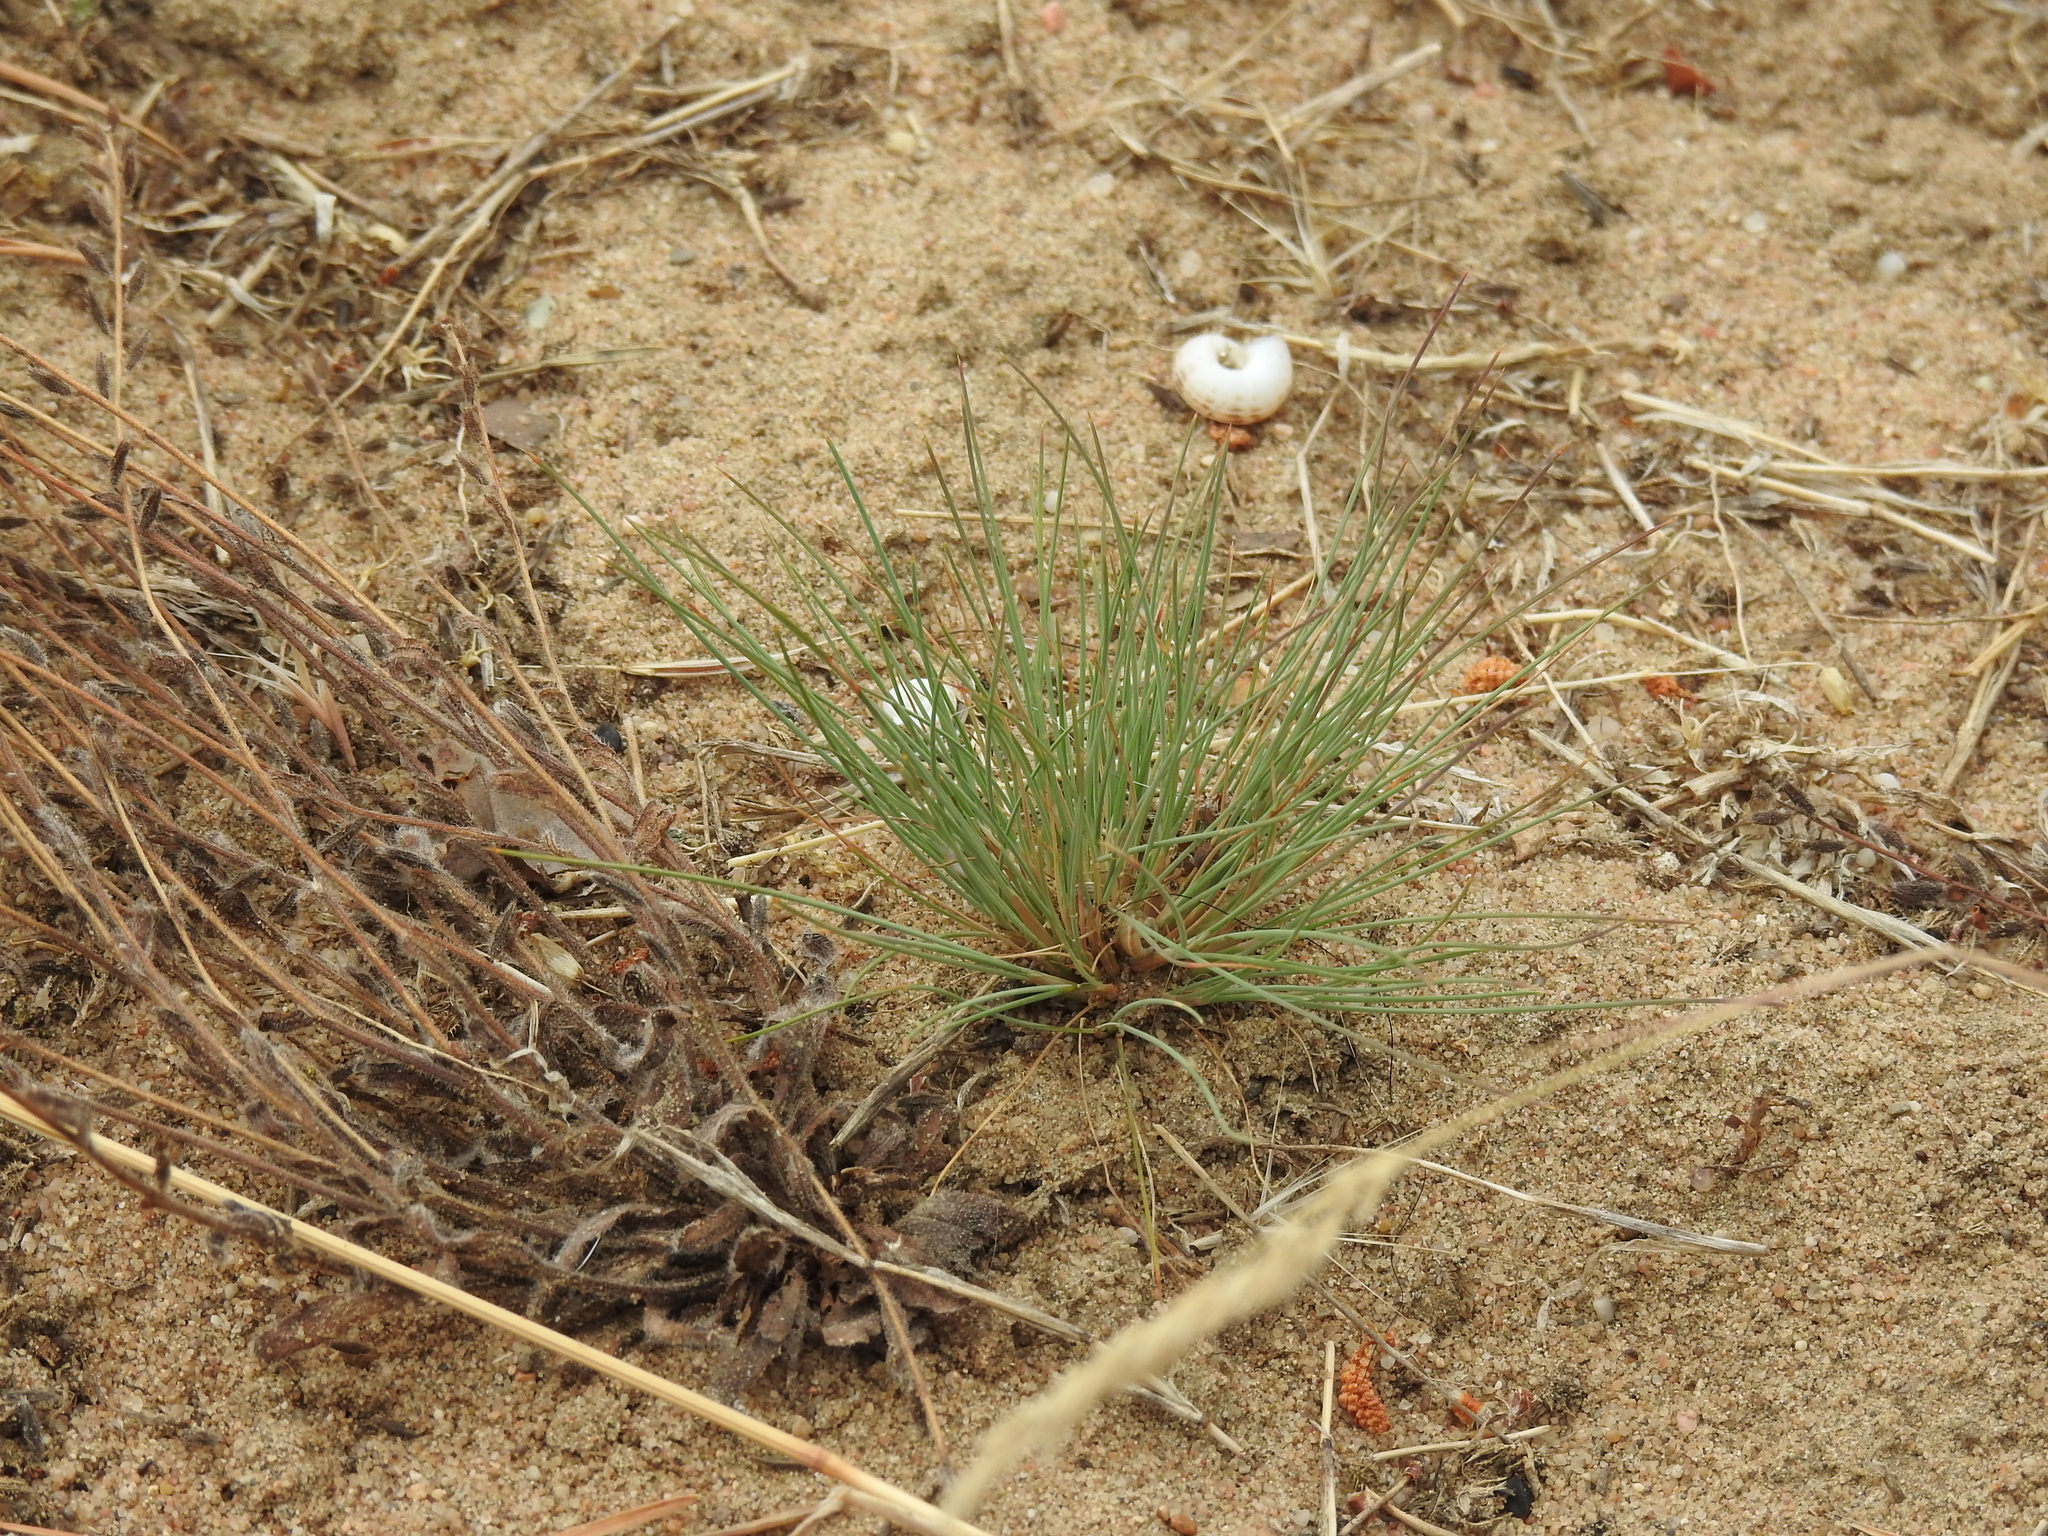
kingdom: Plantae
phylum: Tracheophyta
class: Liliopsida
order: Poales
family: Poaceae
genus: Corynephorus
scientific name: Corynephorus canescens
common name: Grey hair-grass
